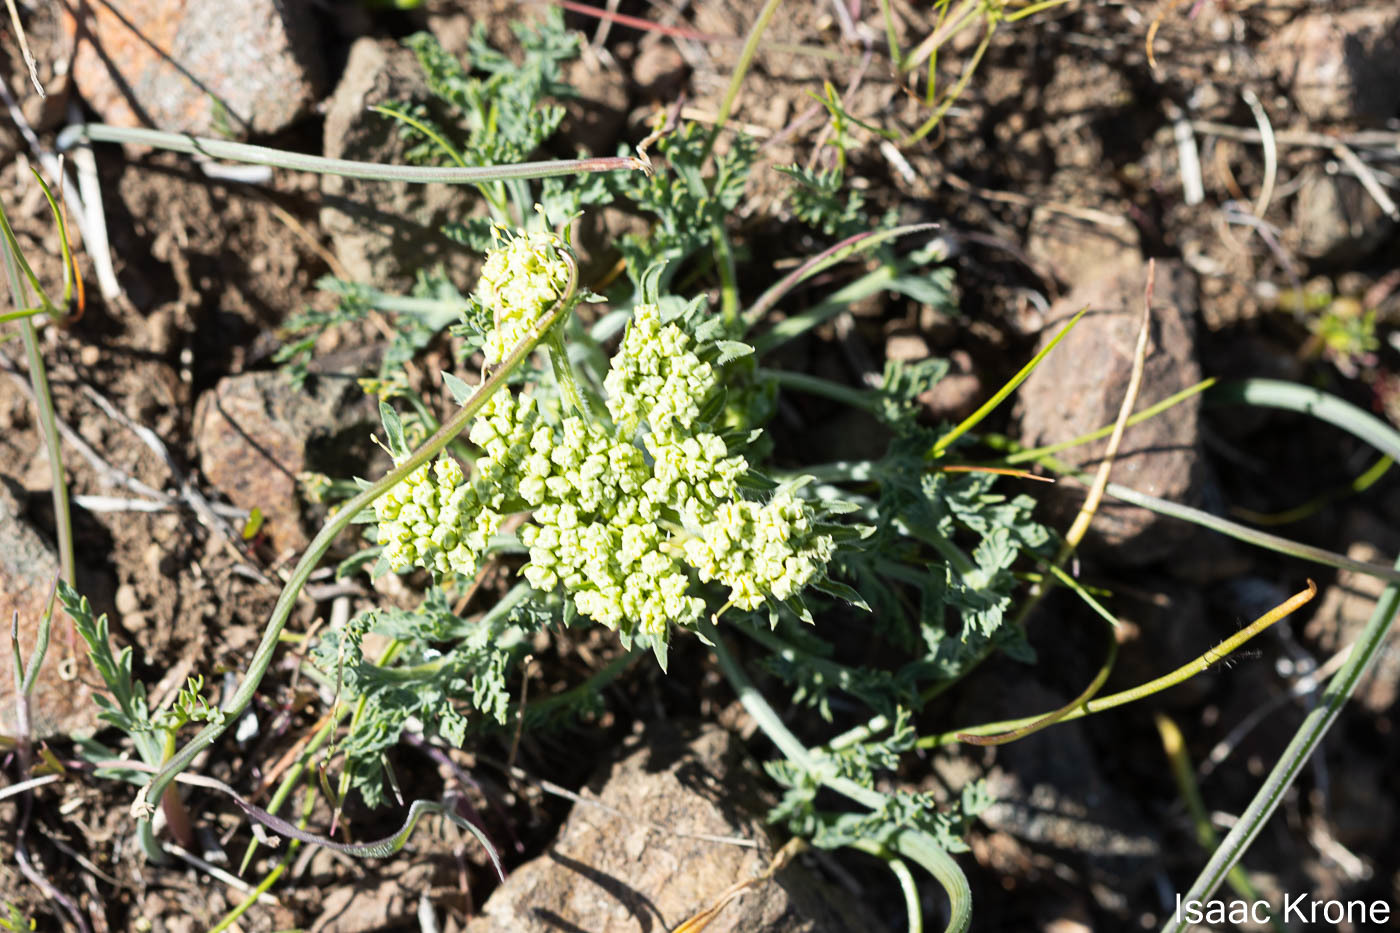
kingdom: Plantae
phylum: Tracheophyta
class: Magnoliopsida
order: Apiales
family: Apiaceae
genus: Lomatium
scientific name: Lomatium macrocarpum
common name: Big-seed biscuitroot
